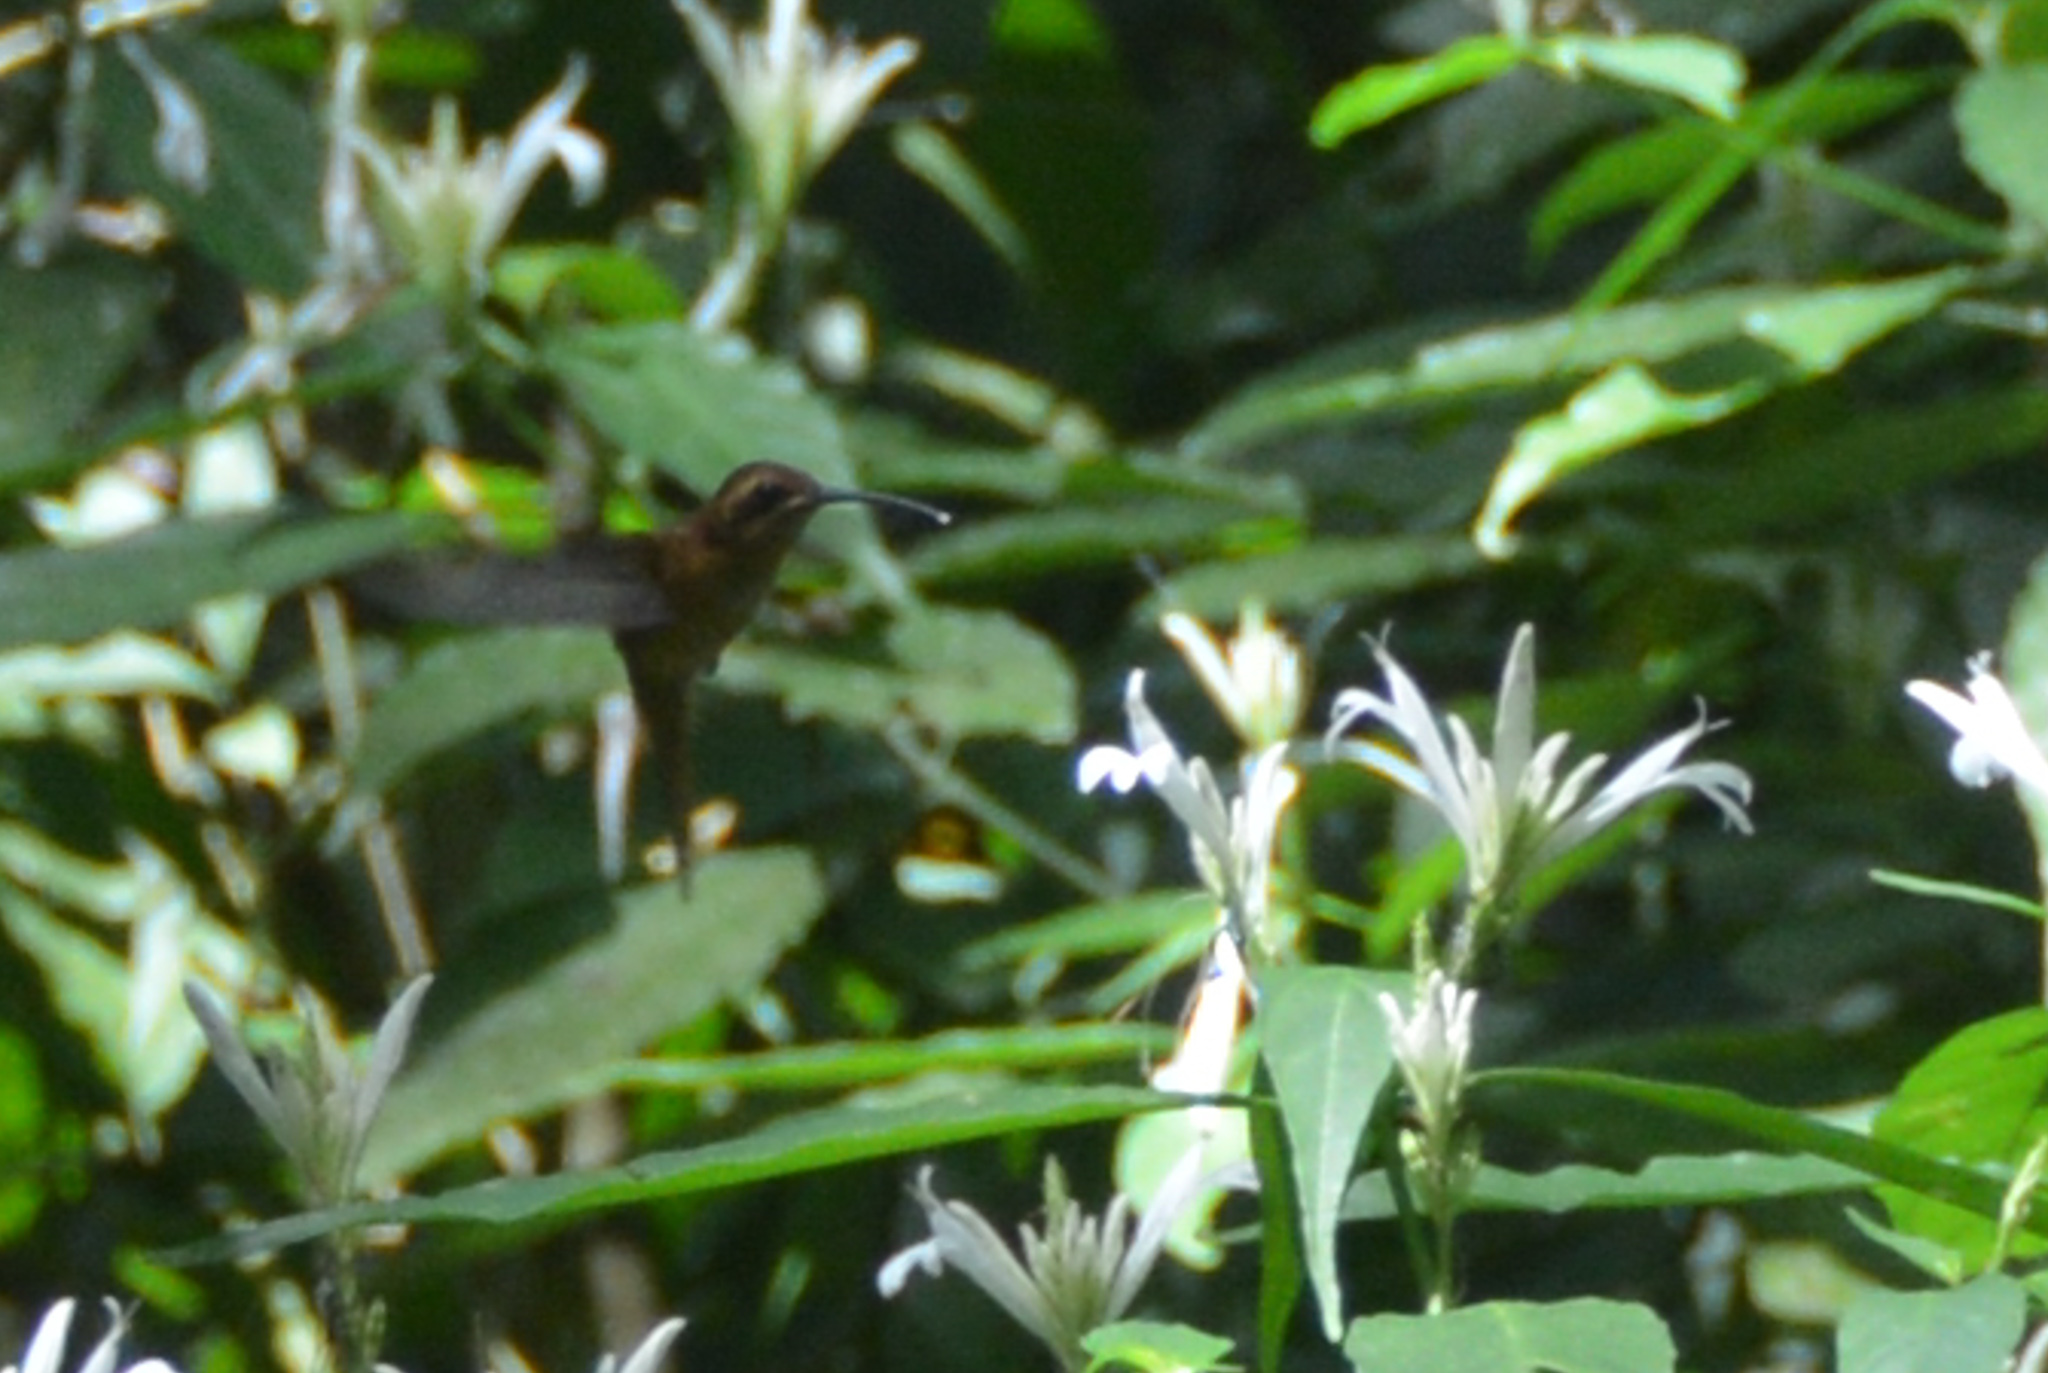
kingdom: Animalia
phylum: Chordata
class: Aves
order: Apodiformes
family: Trochilidae
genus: Phaethornis
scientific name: Phaethornis striigularis
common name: Stripe-throated hermit
